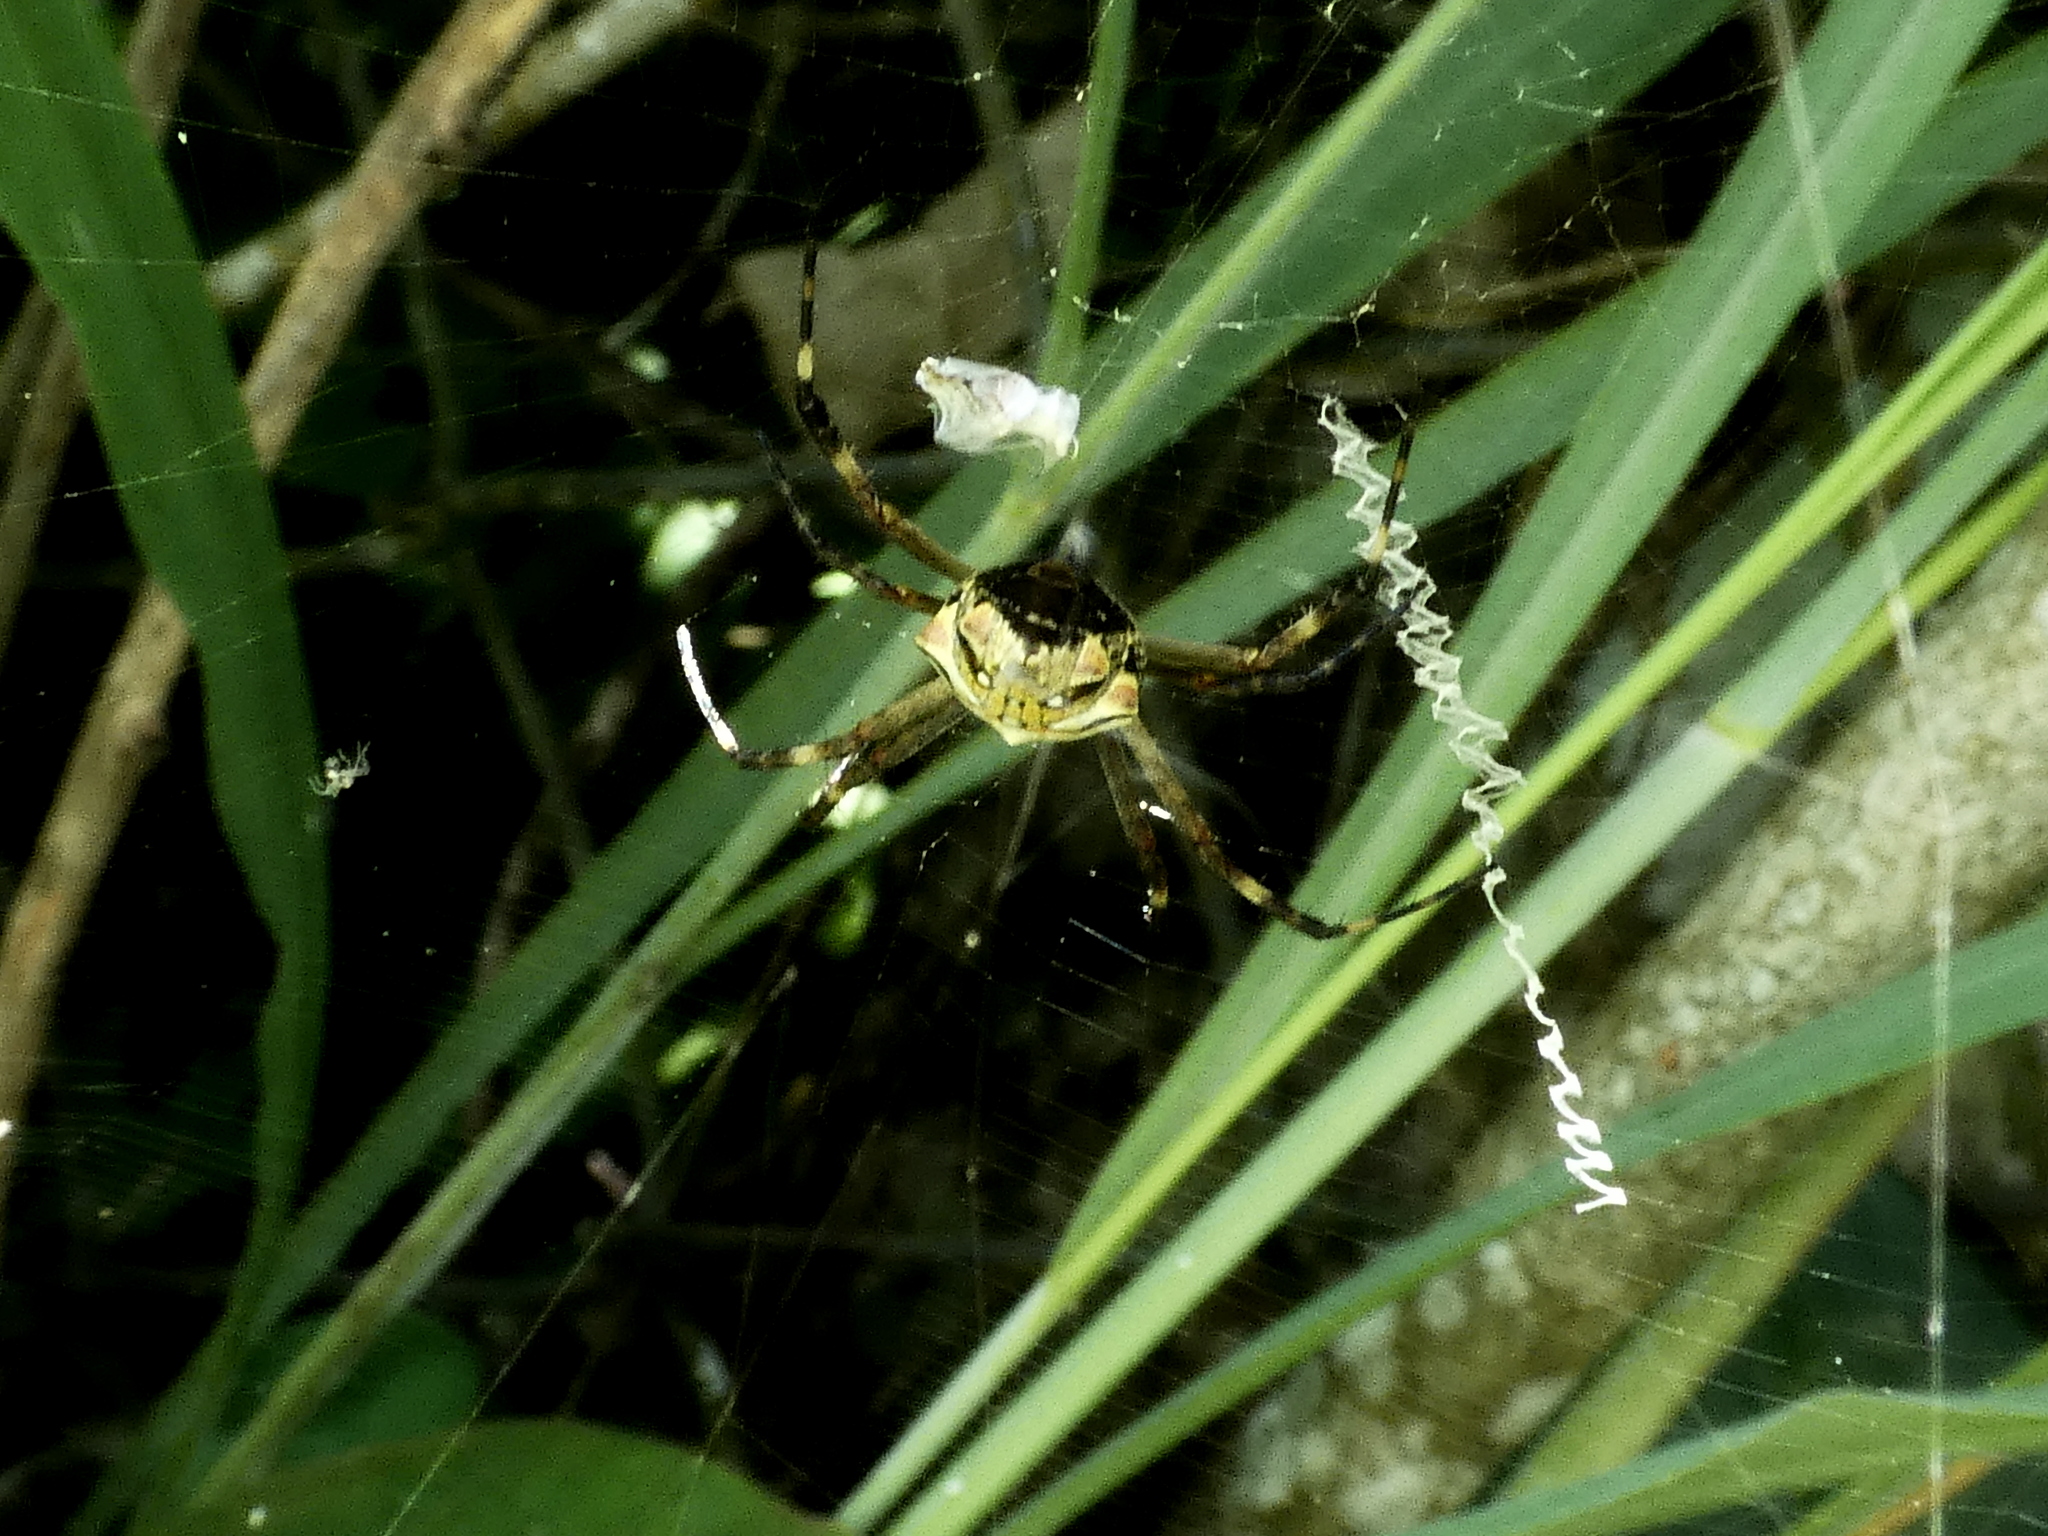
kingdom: Animalia
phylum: Arthropoda
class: Arachnida
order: Araneae
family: Araneidae
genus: Argiope
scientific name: Argiope argentata
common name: Orb weavers
